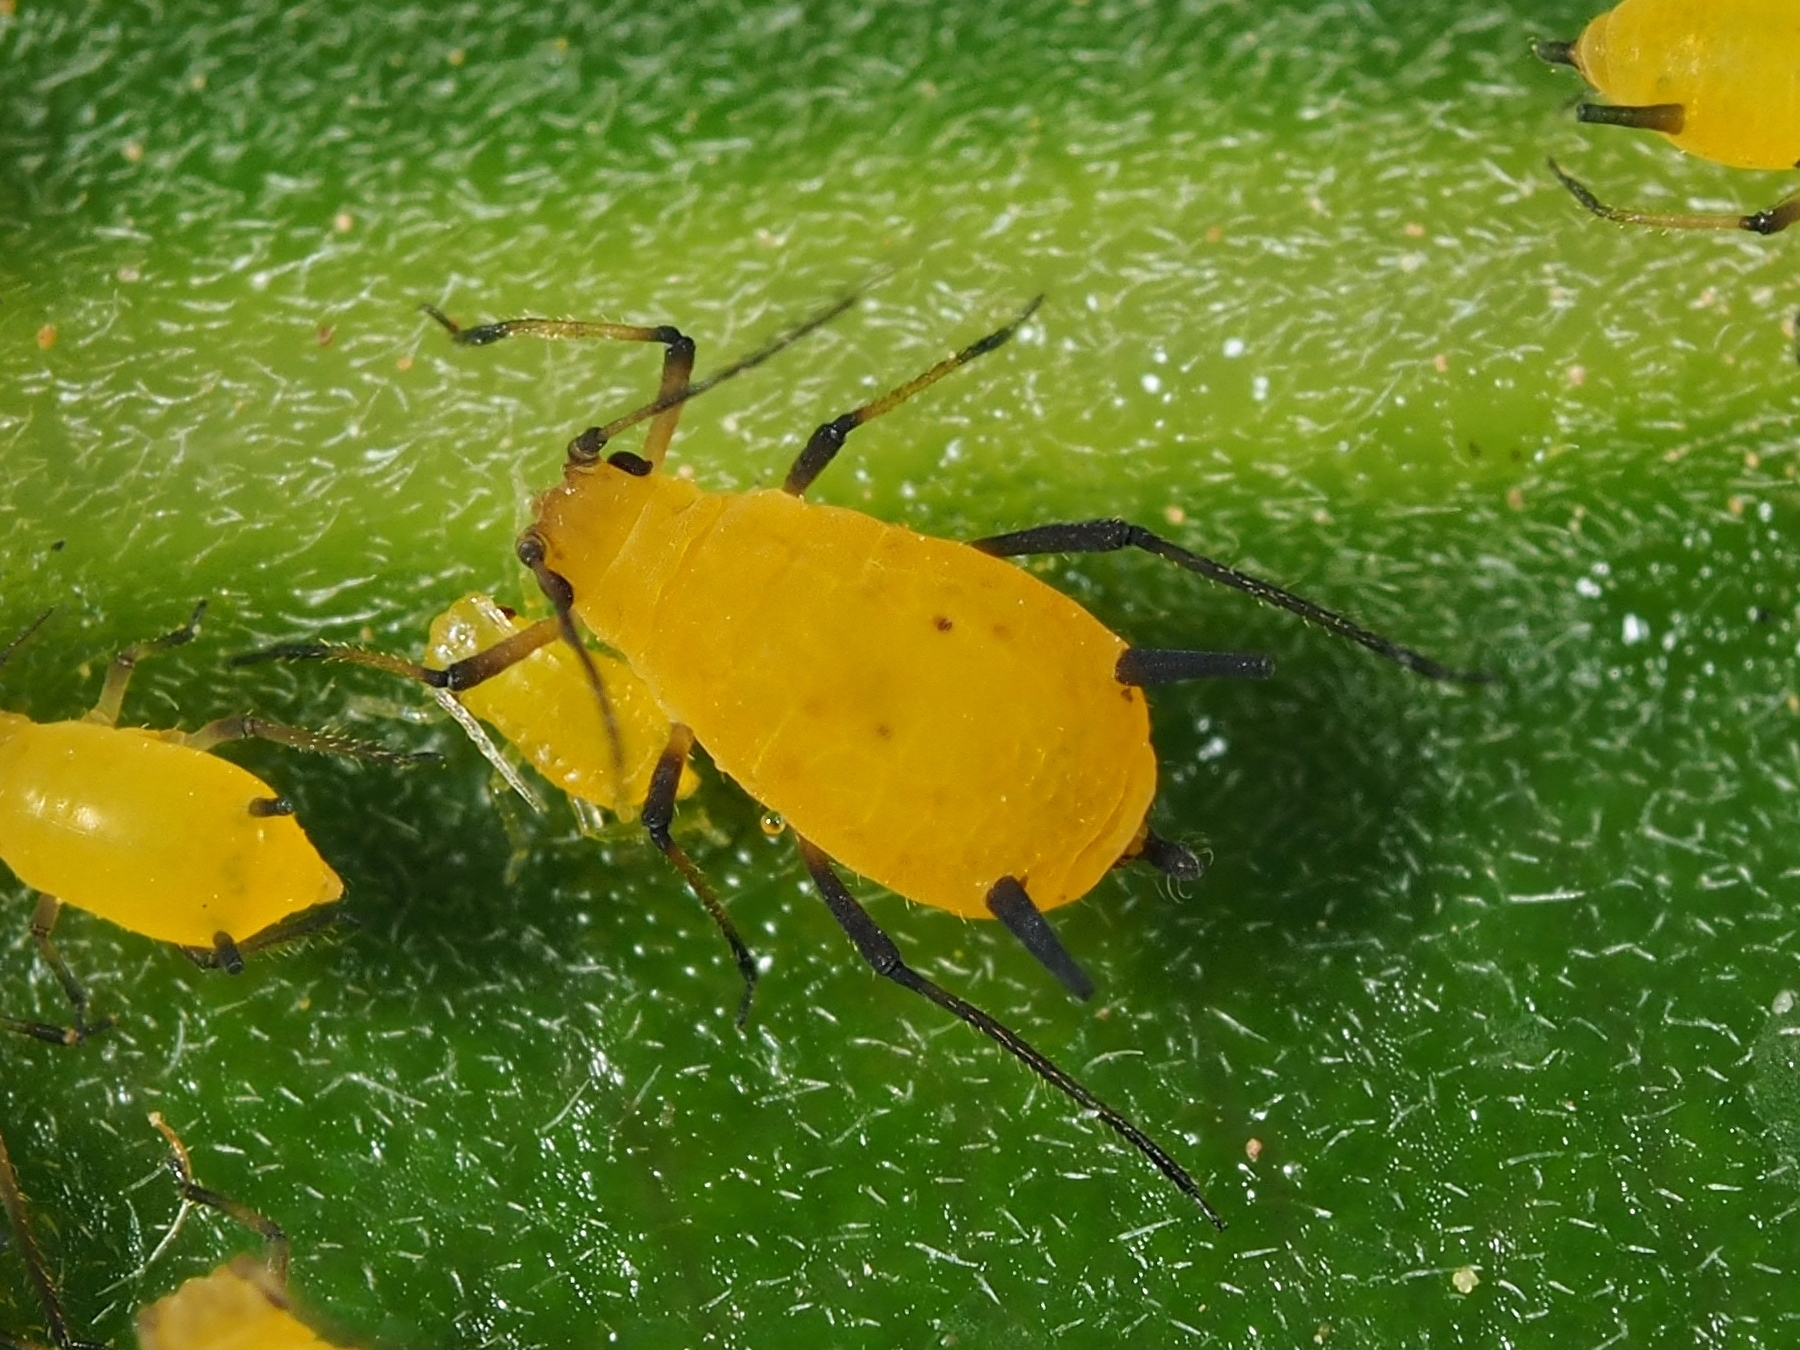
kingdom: Animalia
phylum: Arthropoda
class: Insecta
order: Hemiptera
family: Aphididae
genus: Aphis
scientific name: Aphis nerii
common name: Oleander aphid
